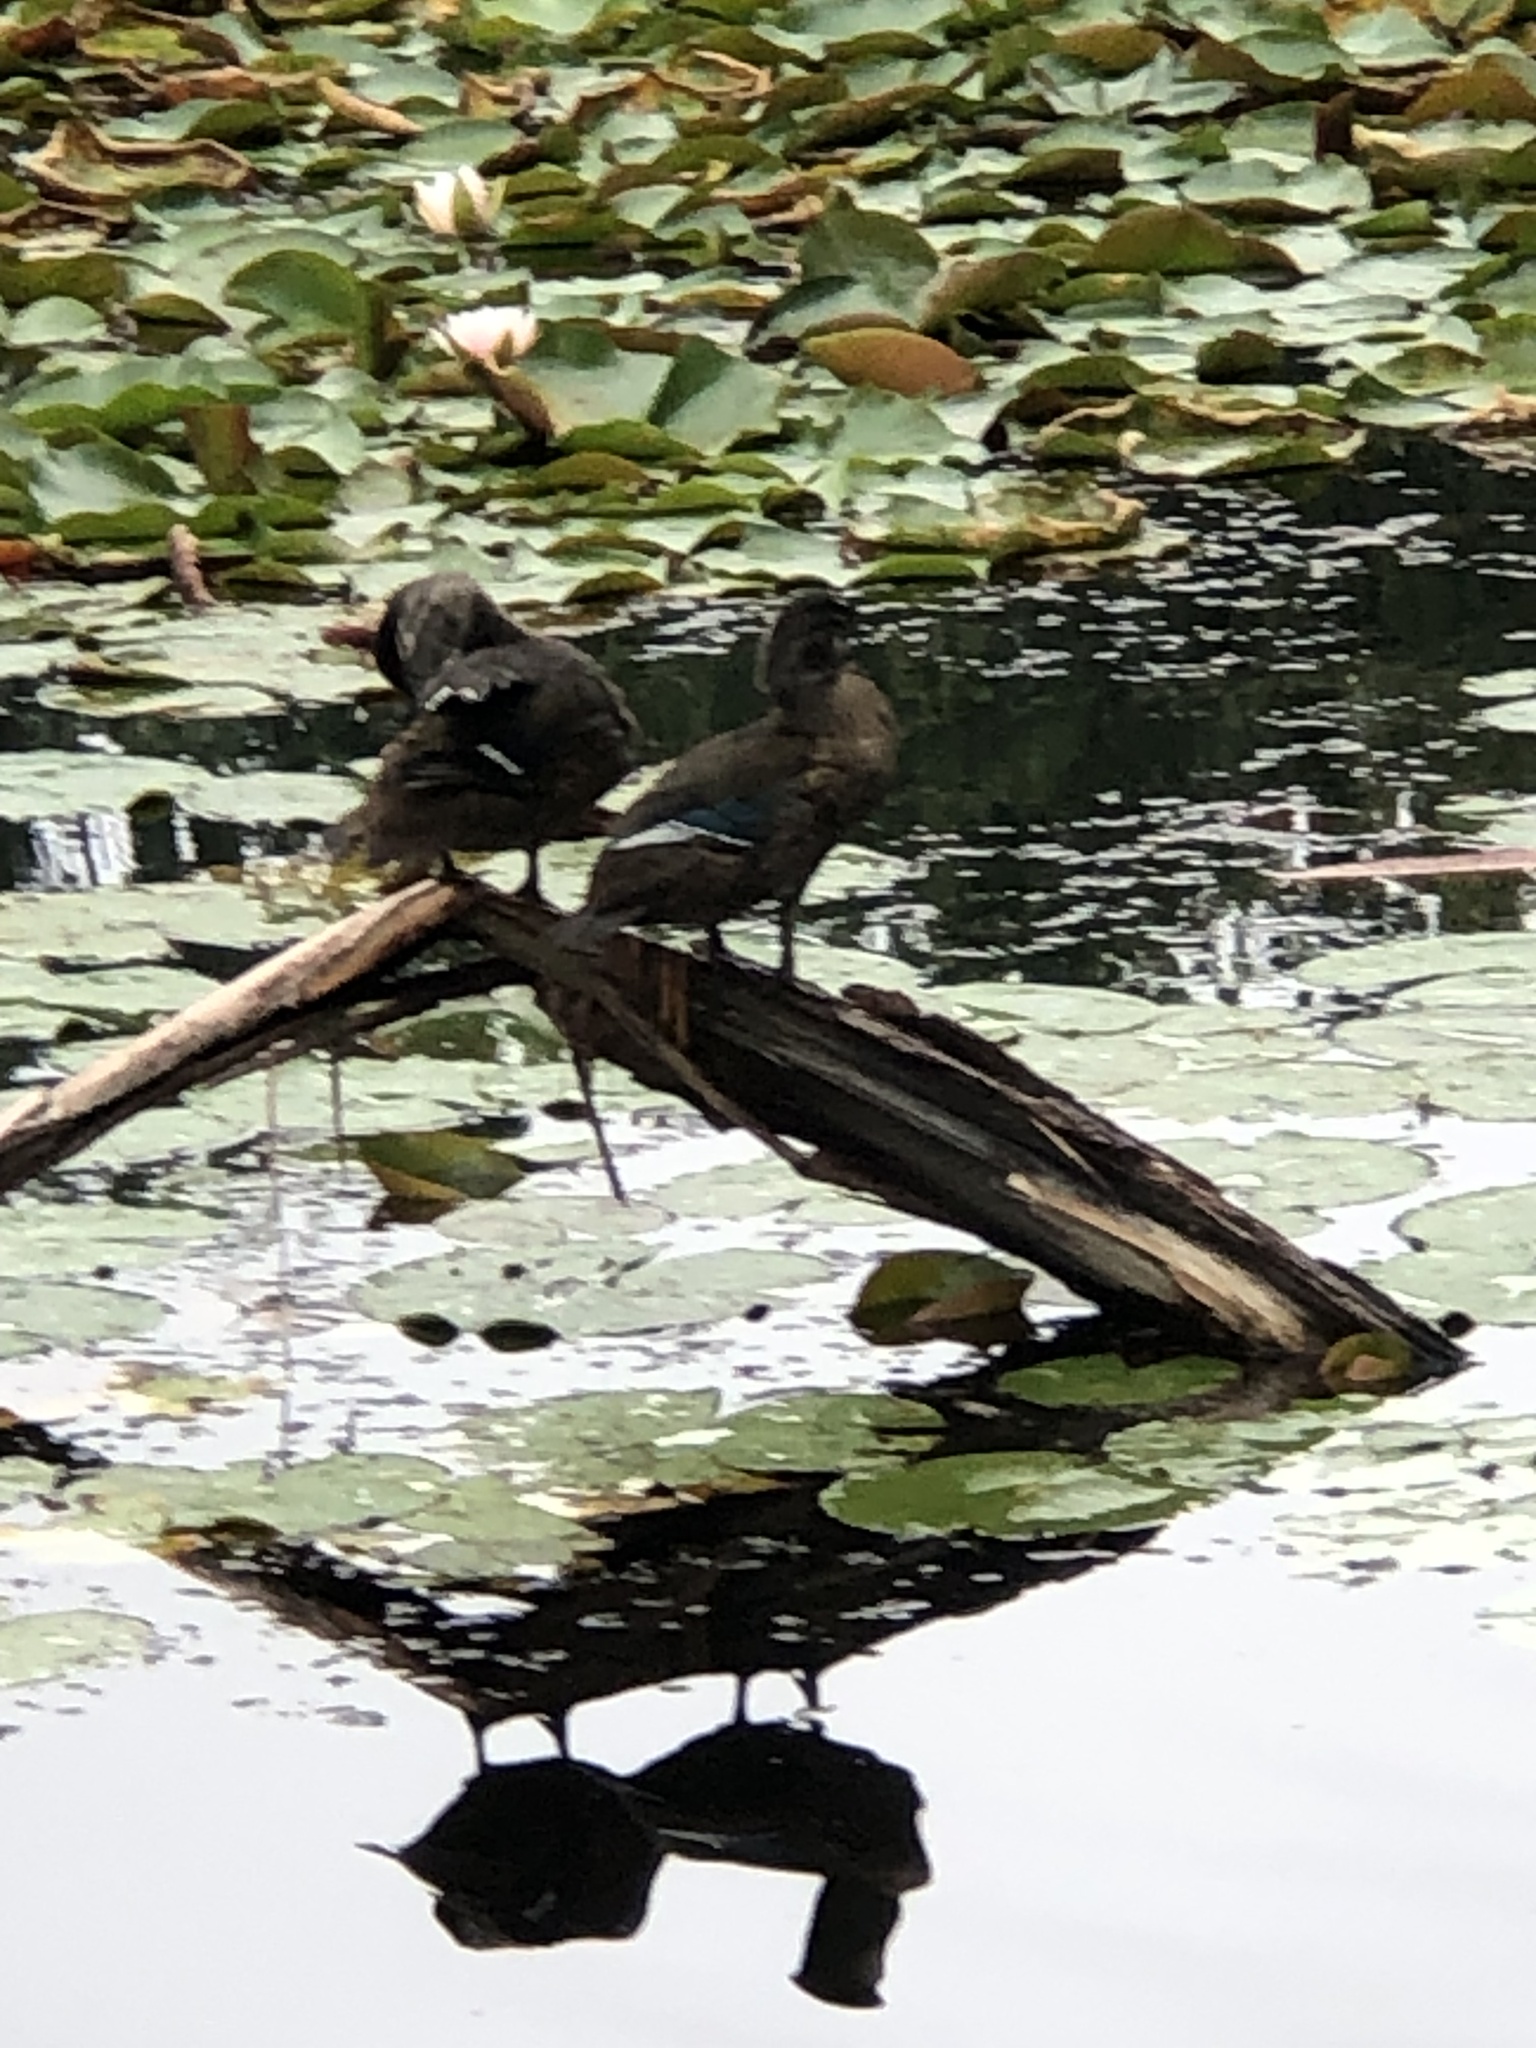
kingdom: Animalia
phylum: Chordata
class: Aves
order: Anseriformes
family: Anatidae
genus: Aix
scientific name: Aix sponsa
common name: Wood duck
